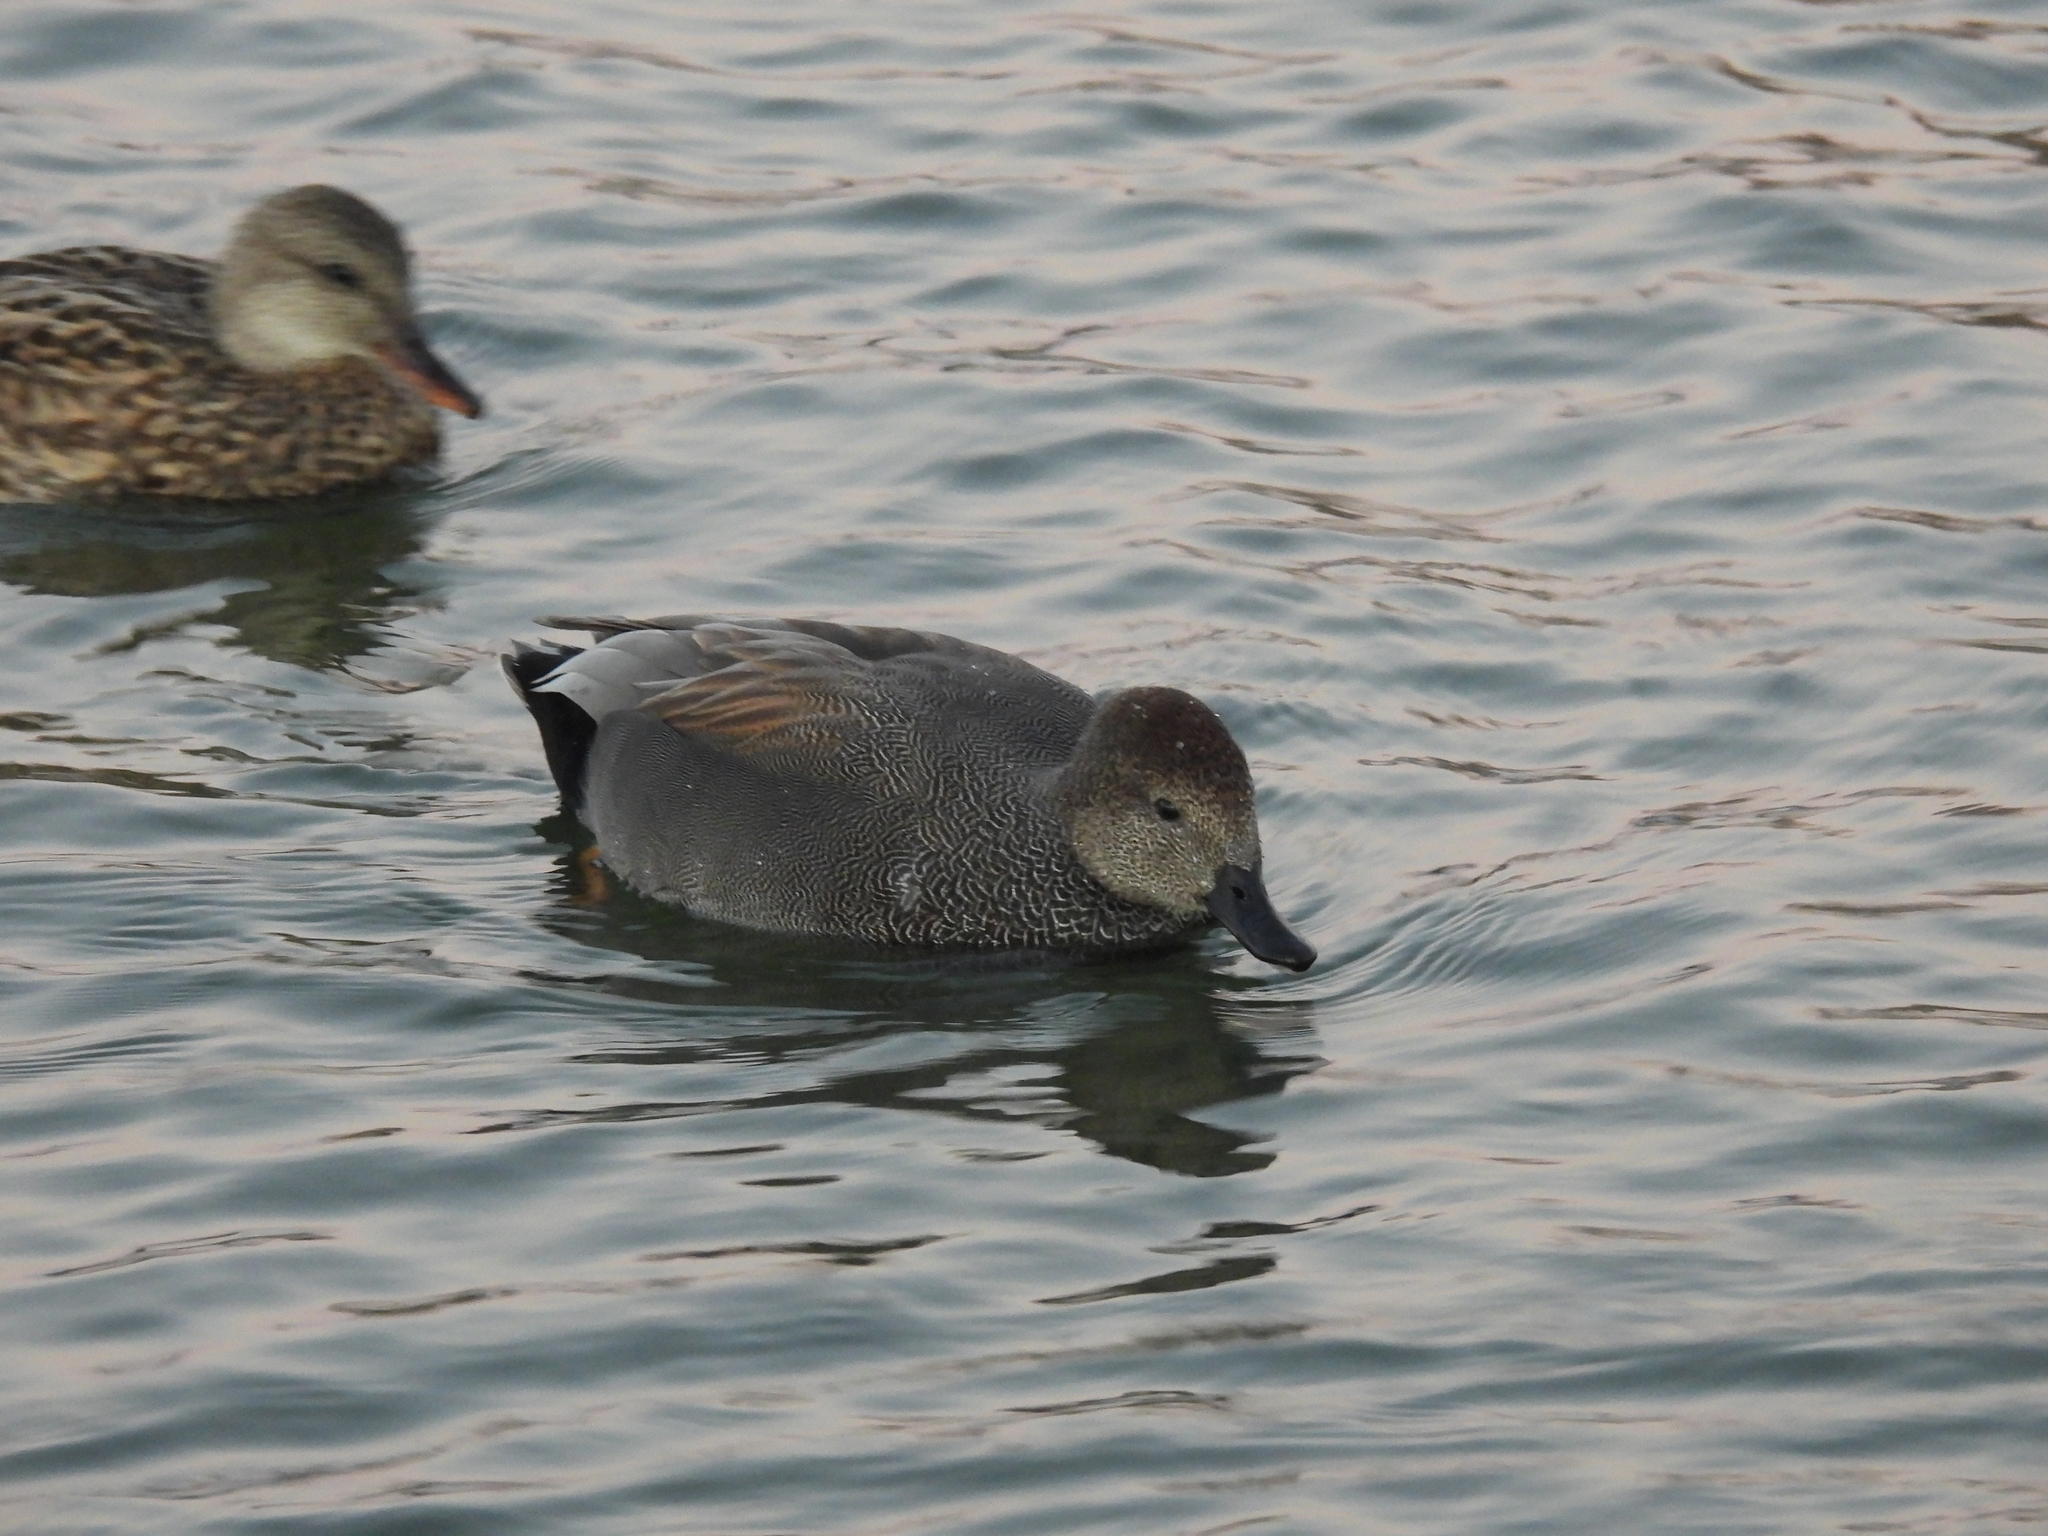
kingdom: Animalia
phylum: Chordata
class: Aves
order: Anseriformes
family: Anatidae
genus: Mareca
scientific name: Mareca strepera
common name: Gadwall
